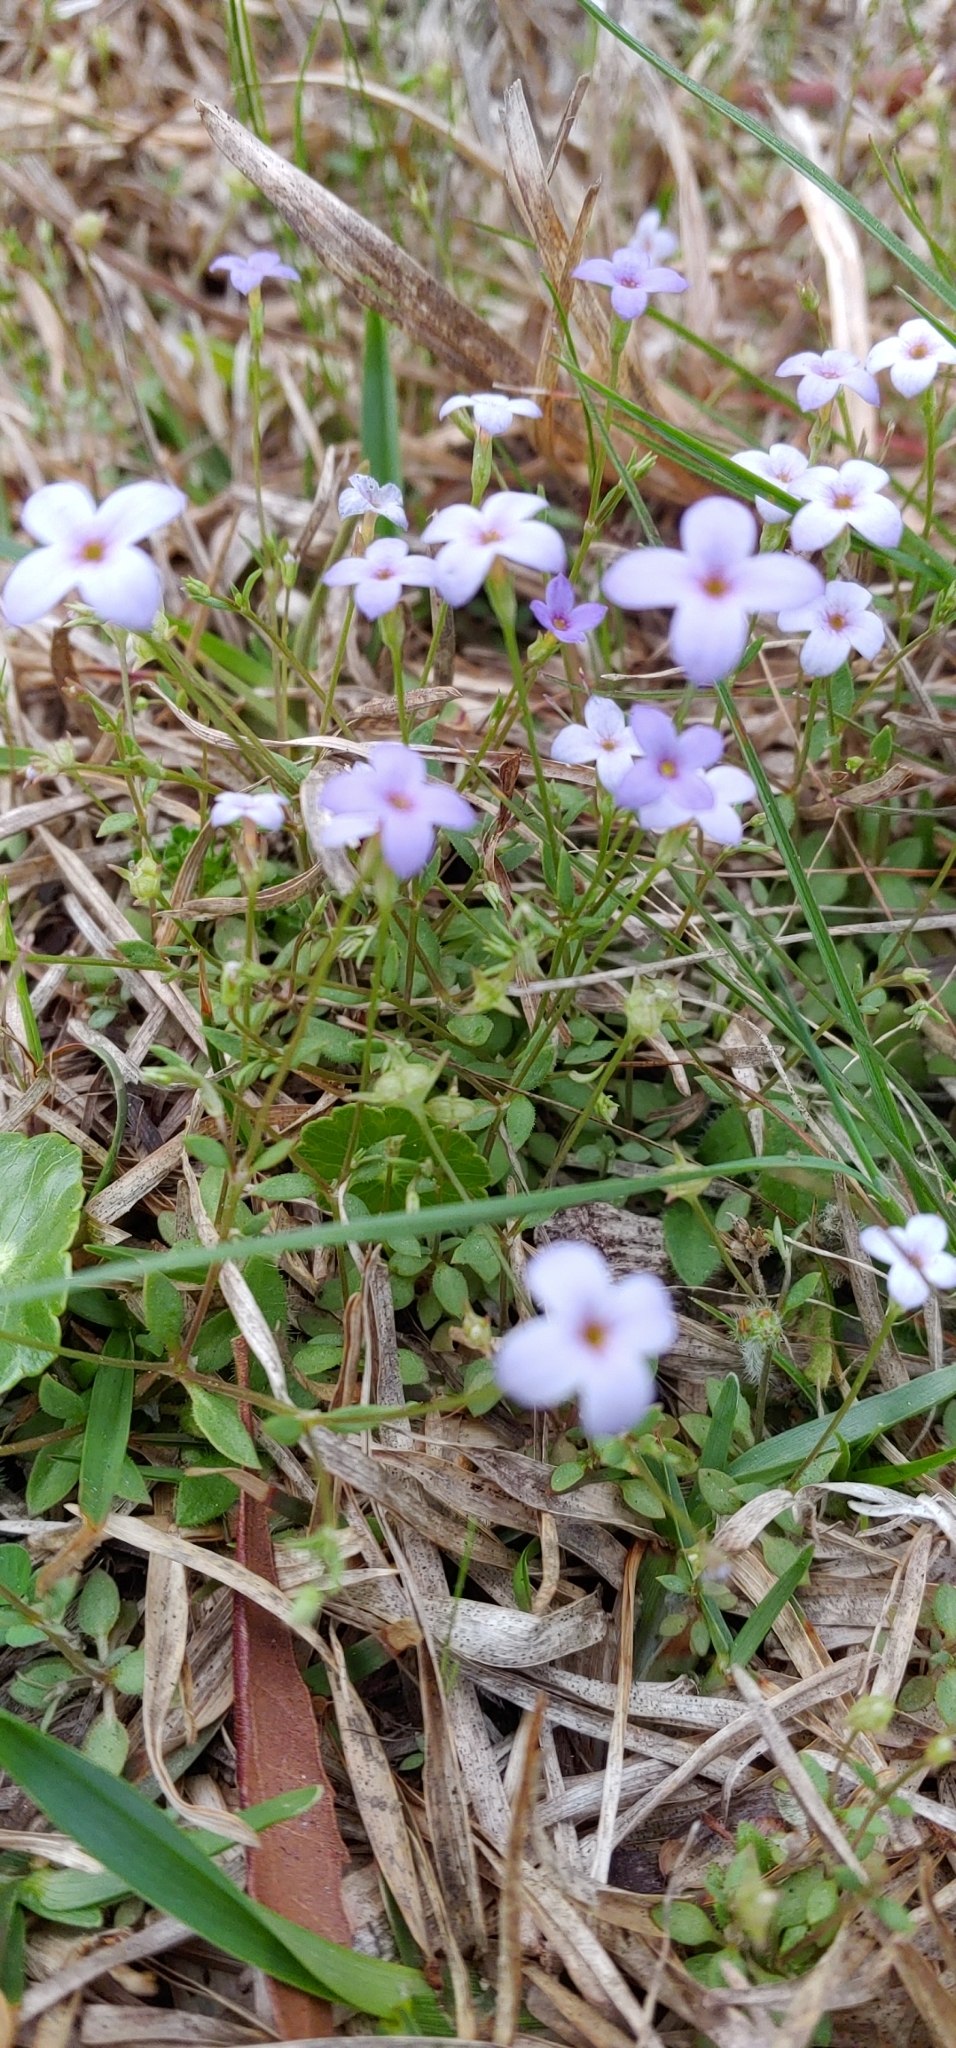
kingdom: Plantae
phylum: Tracheophyta
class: Magnoliopsida
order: Gentianales
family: Rubiaceae
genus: Houstonia
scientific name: Houstonia pusilla
